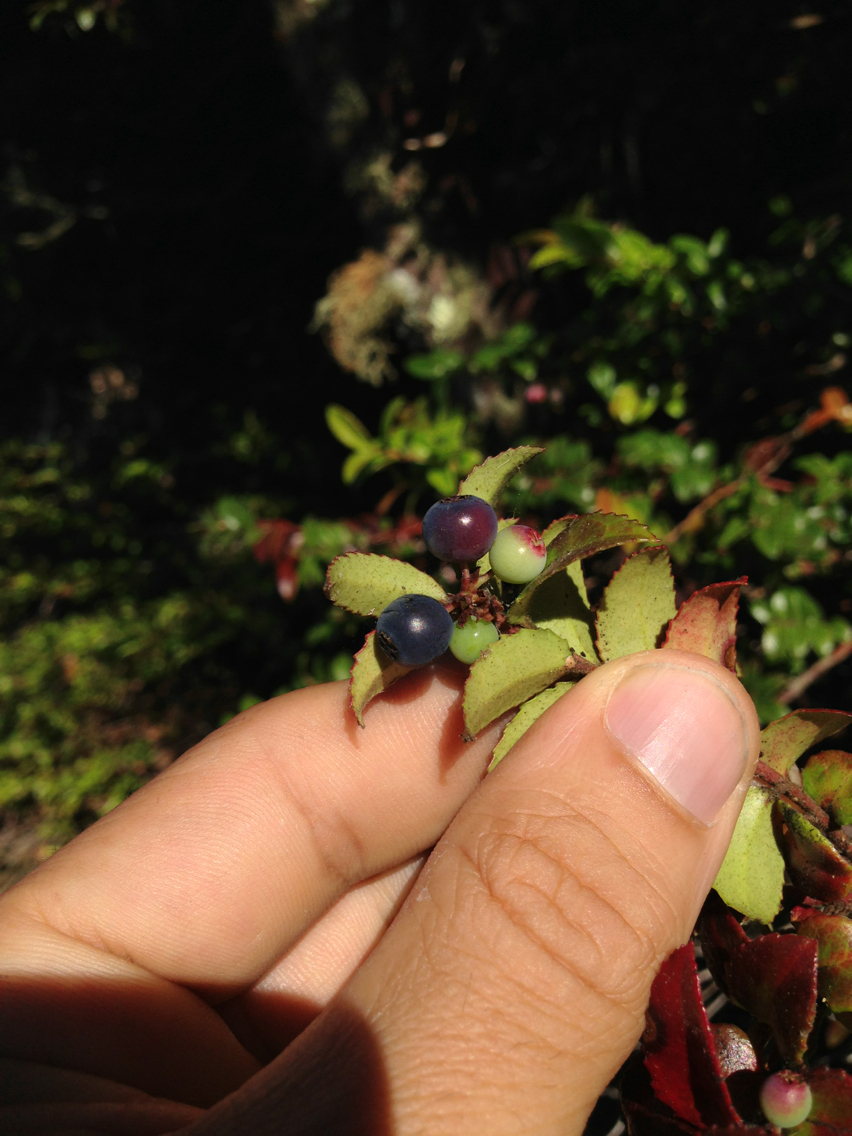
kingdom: Plantae
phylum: Tracheophyta
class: Magnoliopsida
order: Ericales
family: Ericaceae
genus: Vaccinium
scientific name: Vaccinium ovatum
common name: California-huckleberry
